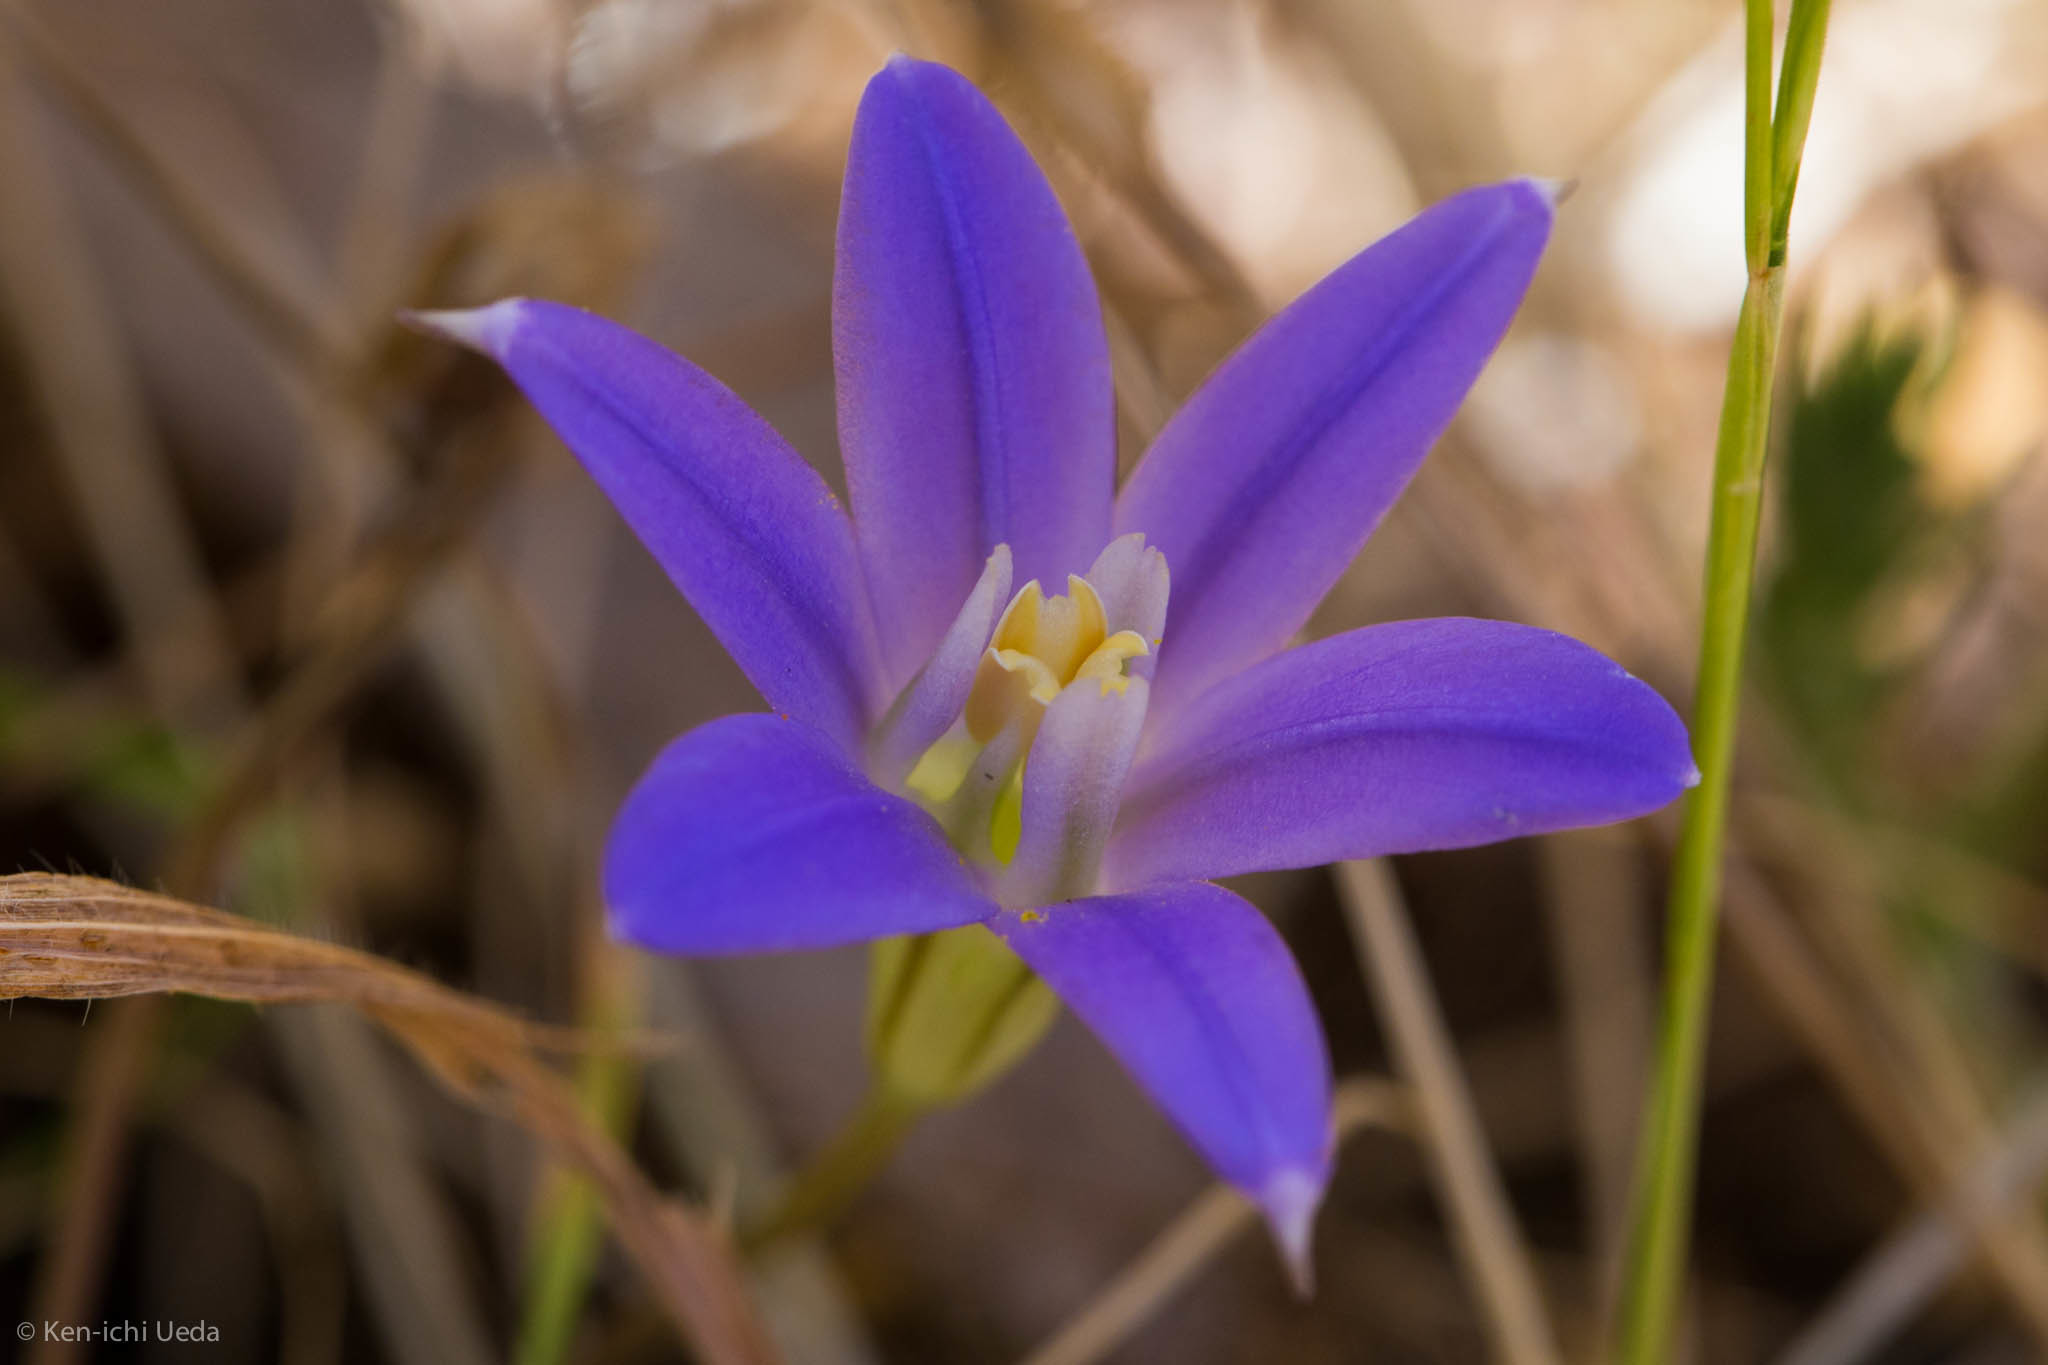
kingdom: Plantae
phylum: Tracheophyta
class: Liliopsida
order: Asparagales
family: Asparagaceae
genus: Brodiaea
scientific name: Brodiaea terrestris
